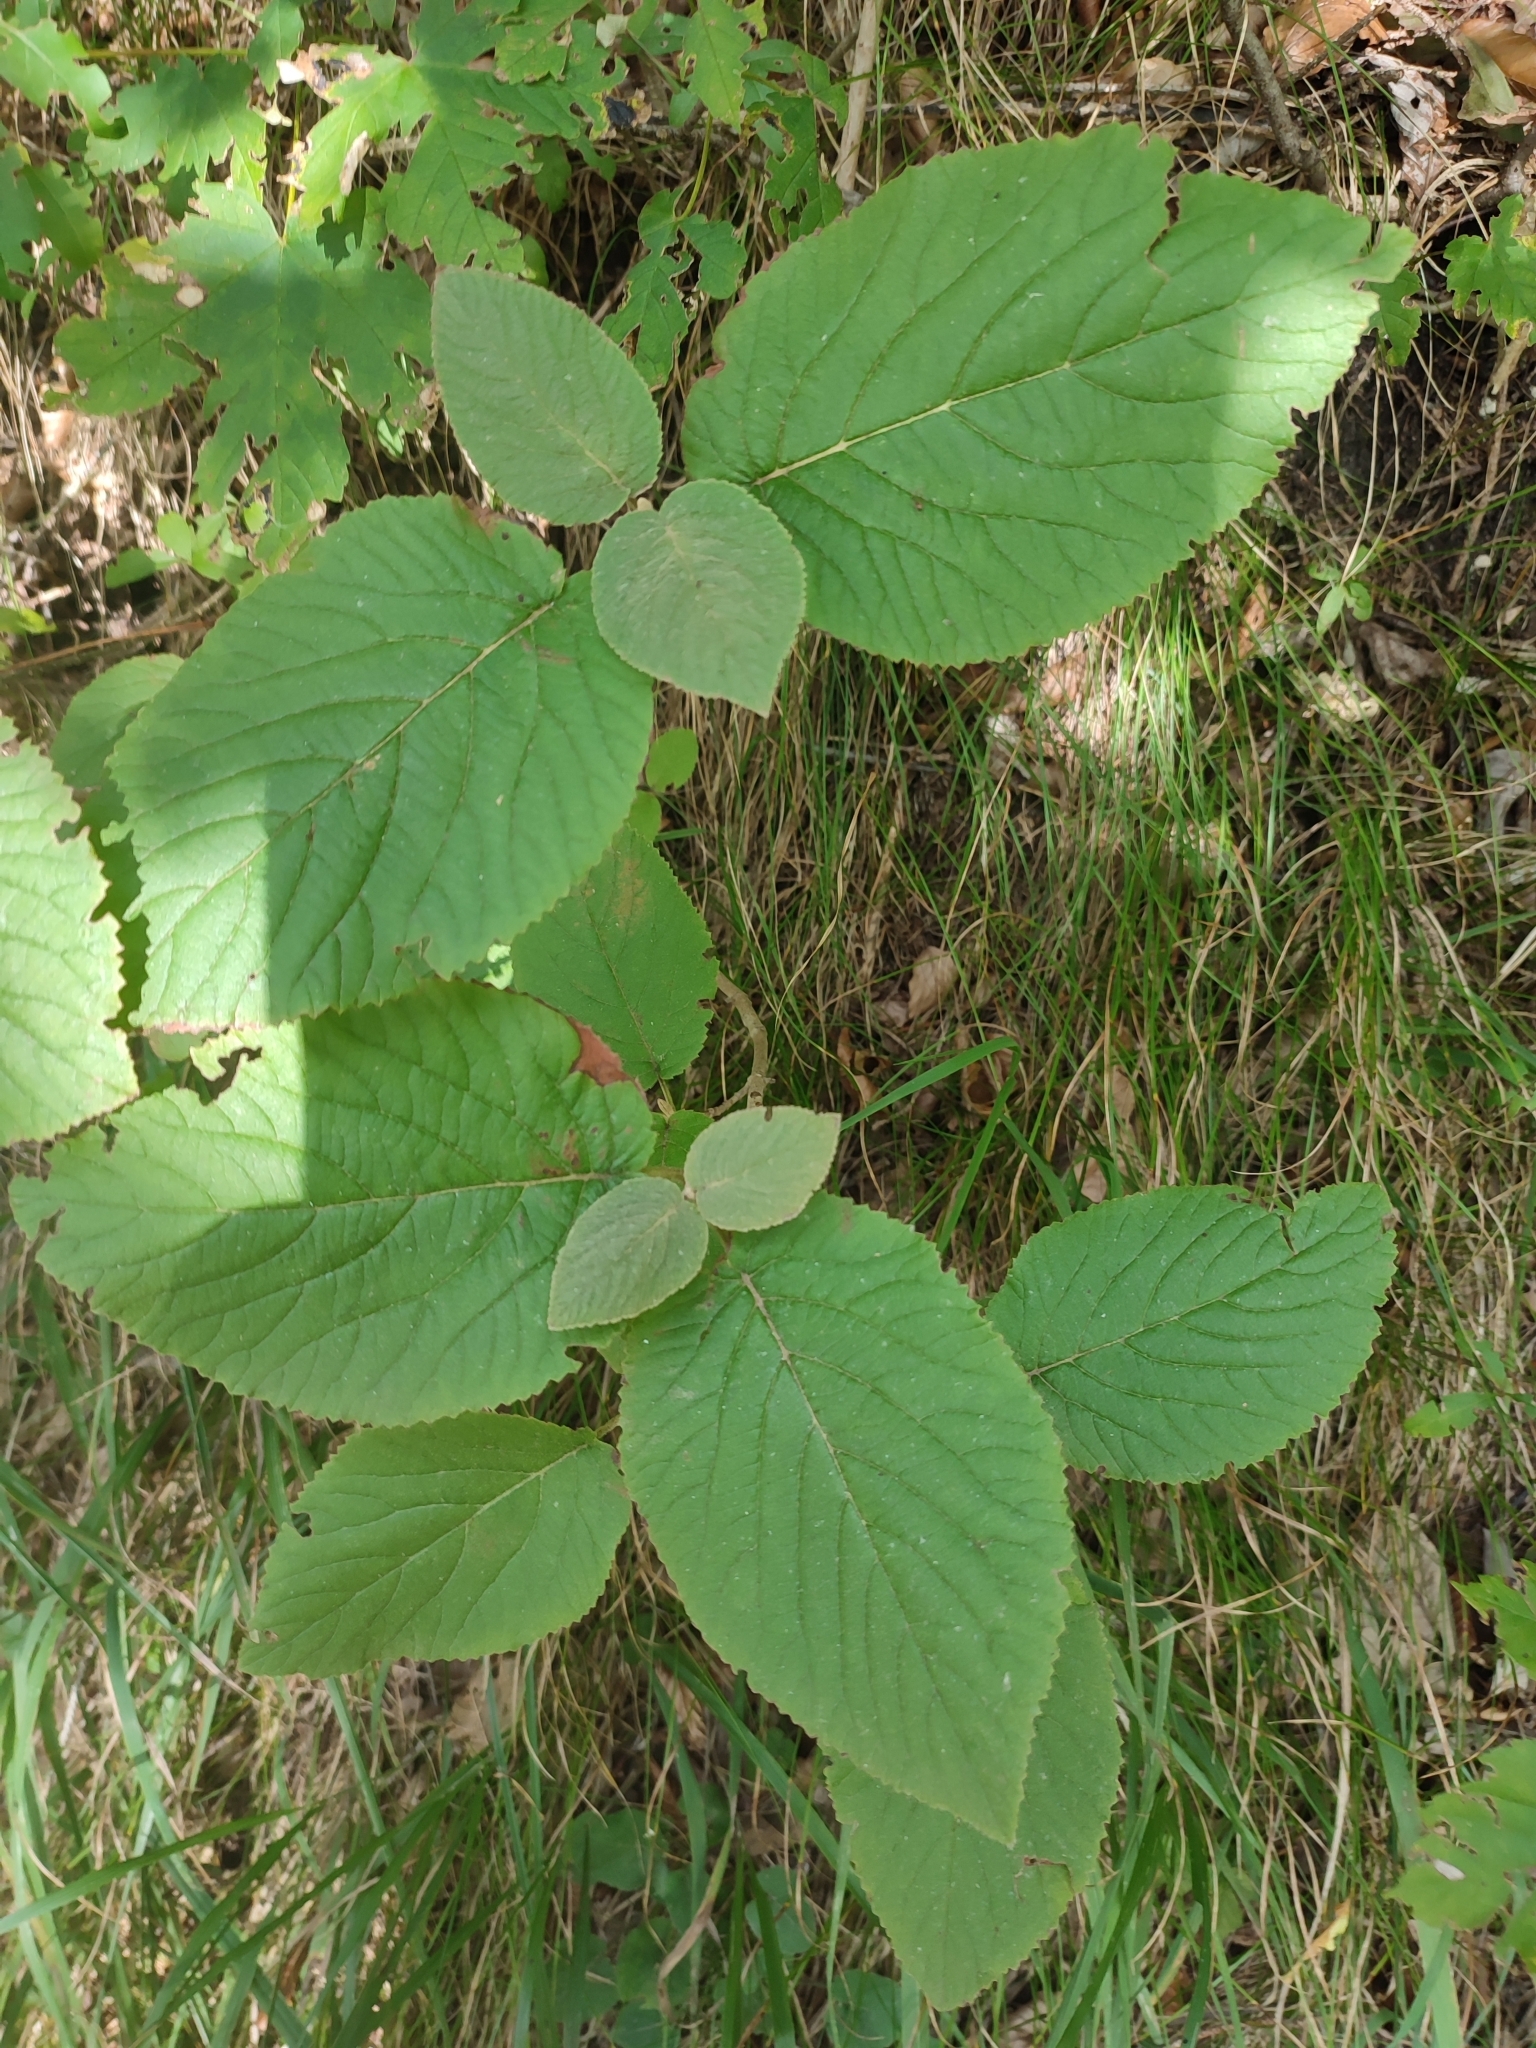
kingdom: Plantae
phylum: Tracheophyta
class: Magnoliopsida
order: Dipsacales
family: Viburnaceae
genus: Viburnum
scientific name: Viburnum lantana
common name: Wayfaring tree
